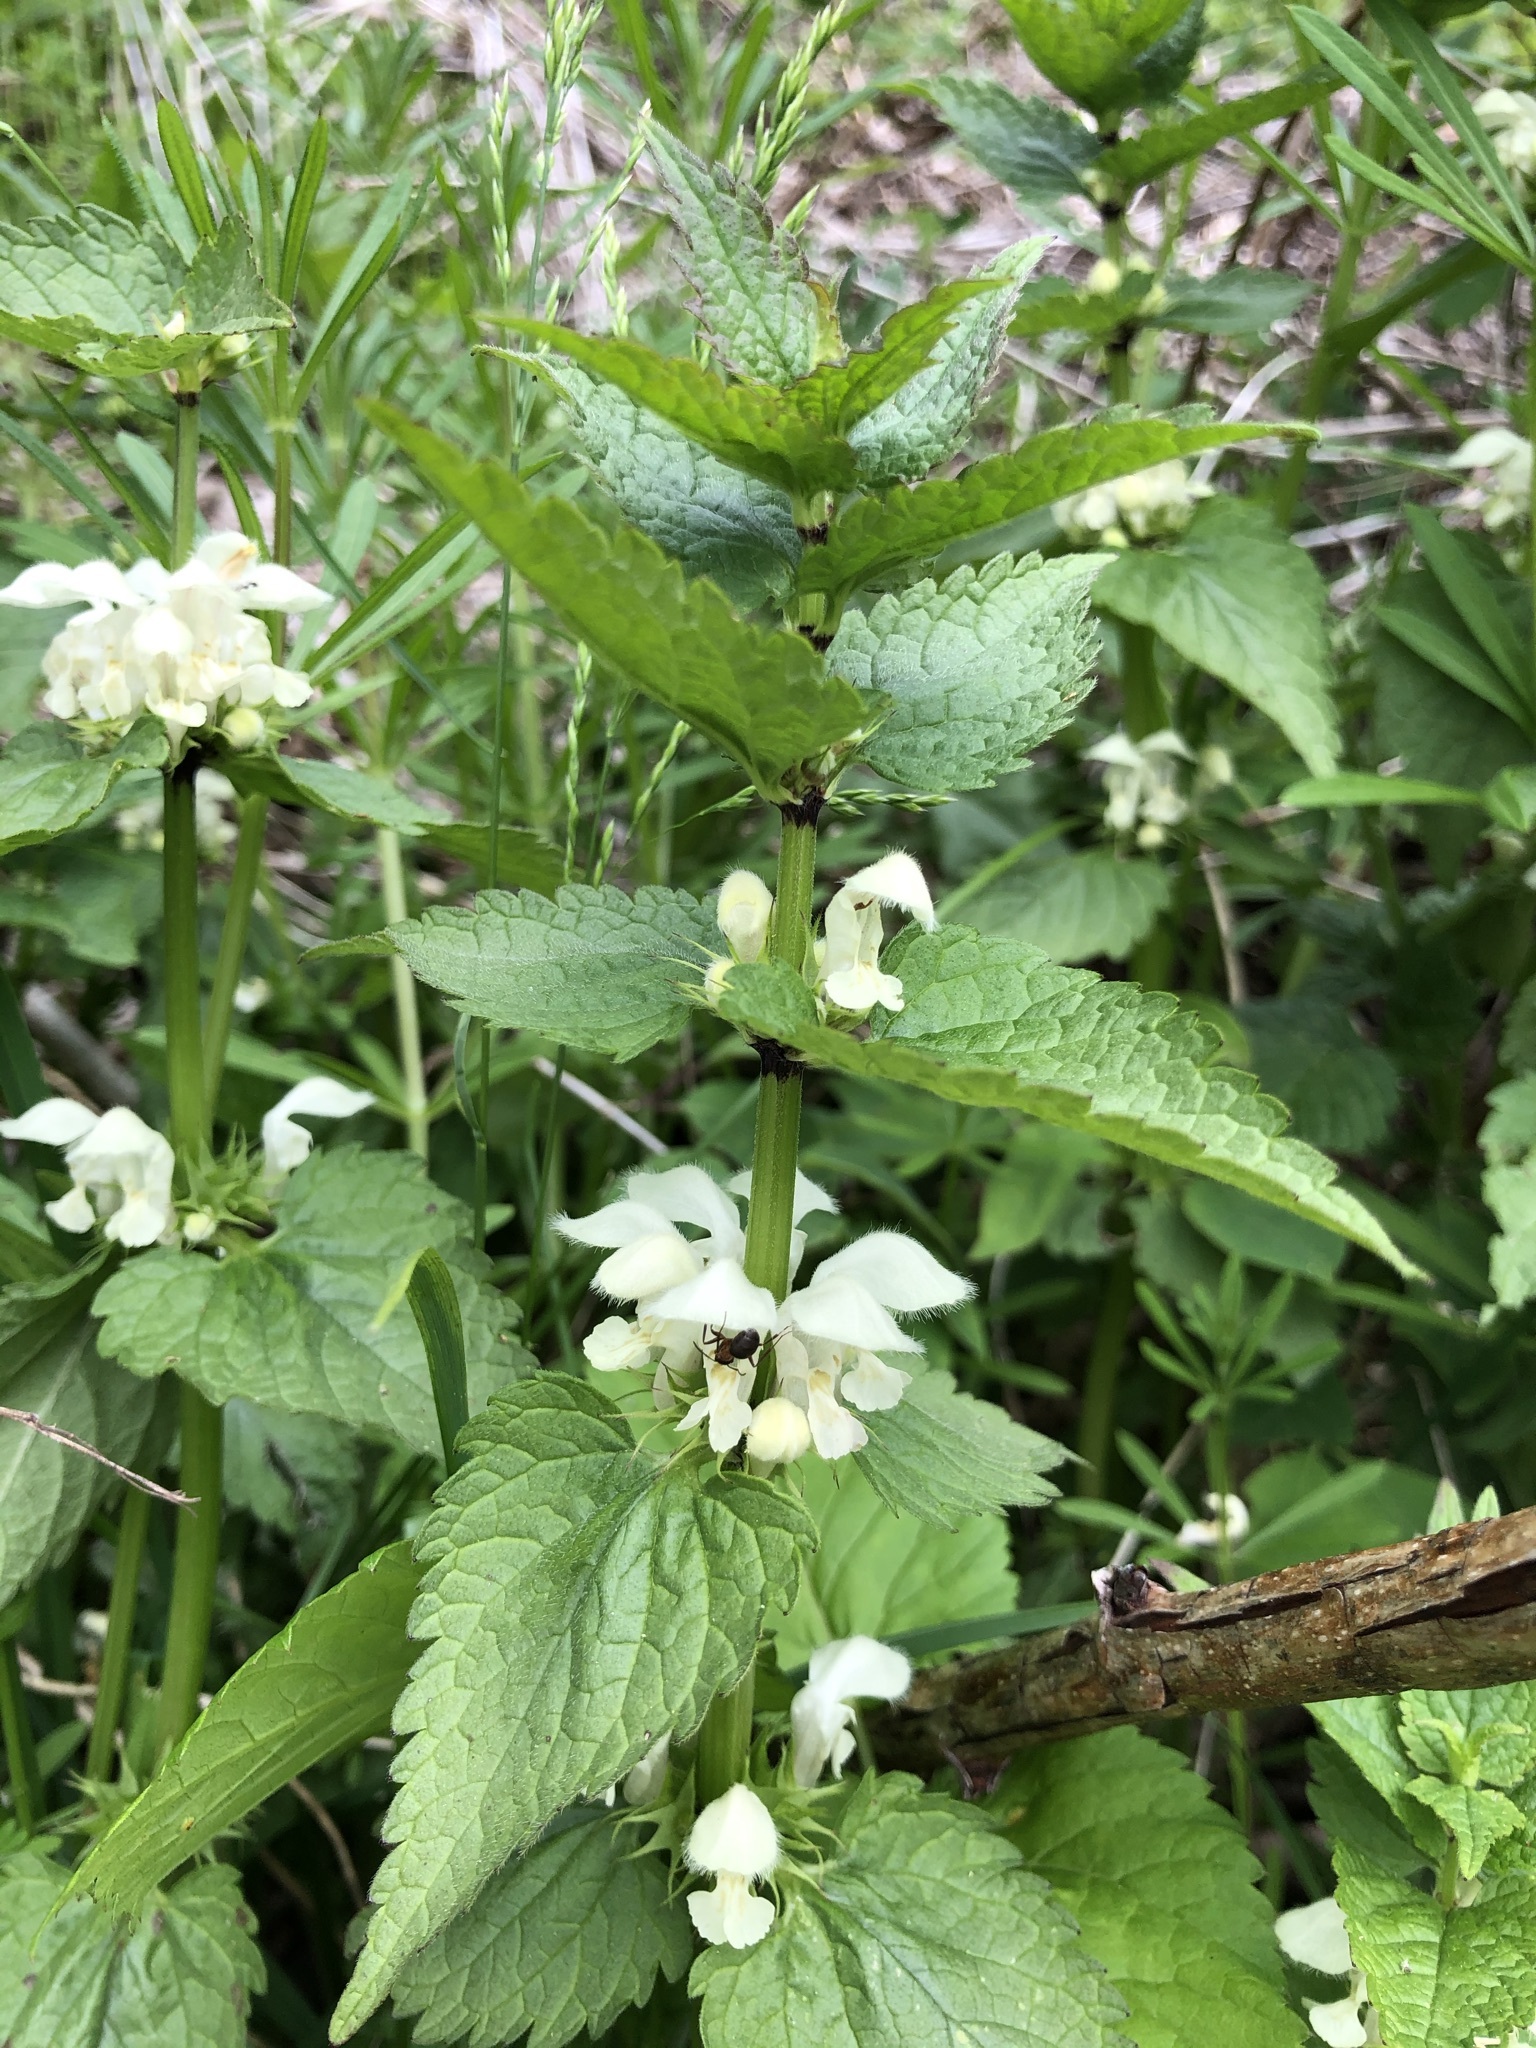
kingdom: Plantae
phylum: Tracheophyta
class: Magnoliopsida
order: Lamiales
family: Lamiaceae
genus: Lamium
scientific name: Lamium album
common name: White dead-nettle
